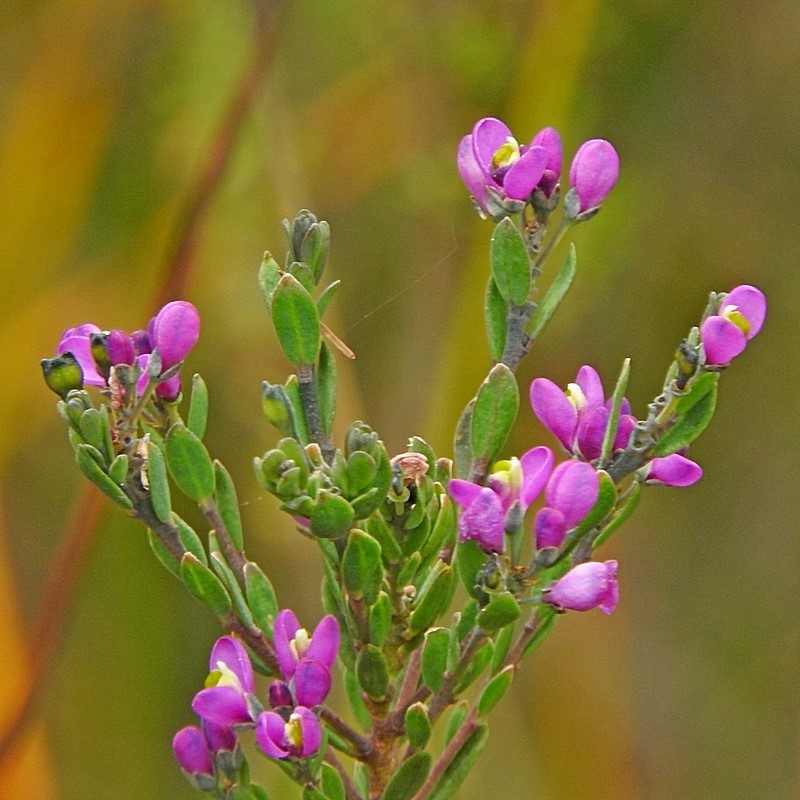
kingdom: Plantae
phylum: Tracheophyta
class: Magnoliopsida
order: Fabales
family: Polygalaceae
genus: Comesperma
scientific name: Comesperma retusum
